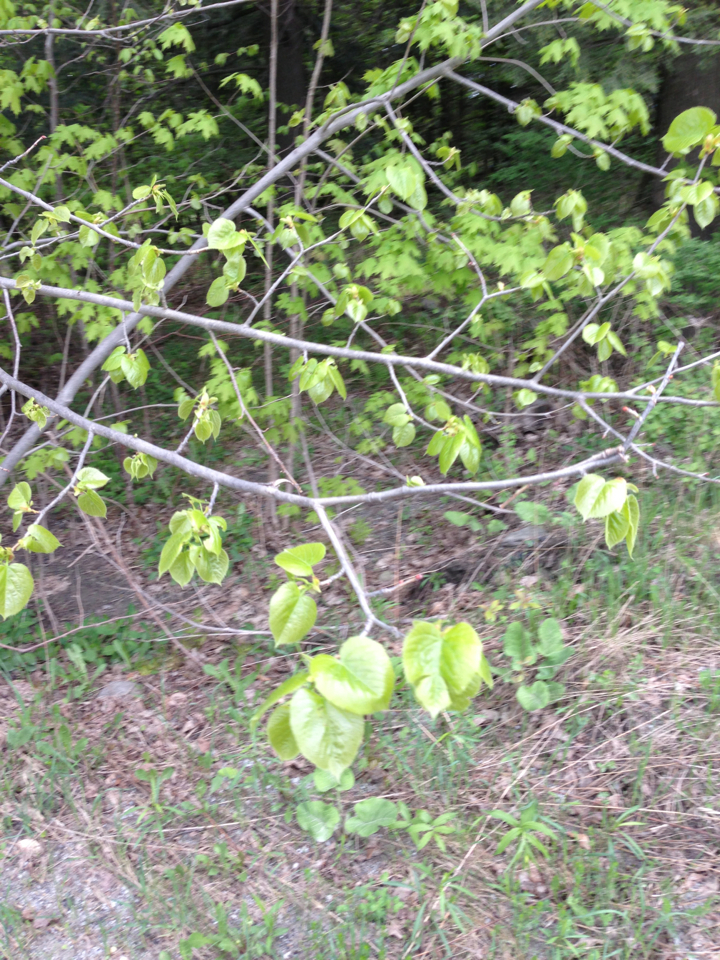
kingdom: Plantae
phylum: Tracheophyta
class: Magnoliopsida
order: Malvales
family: Malvaceae
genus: Tilia
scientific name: Tilia americana
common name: Basswood
